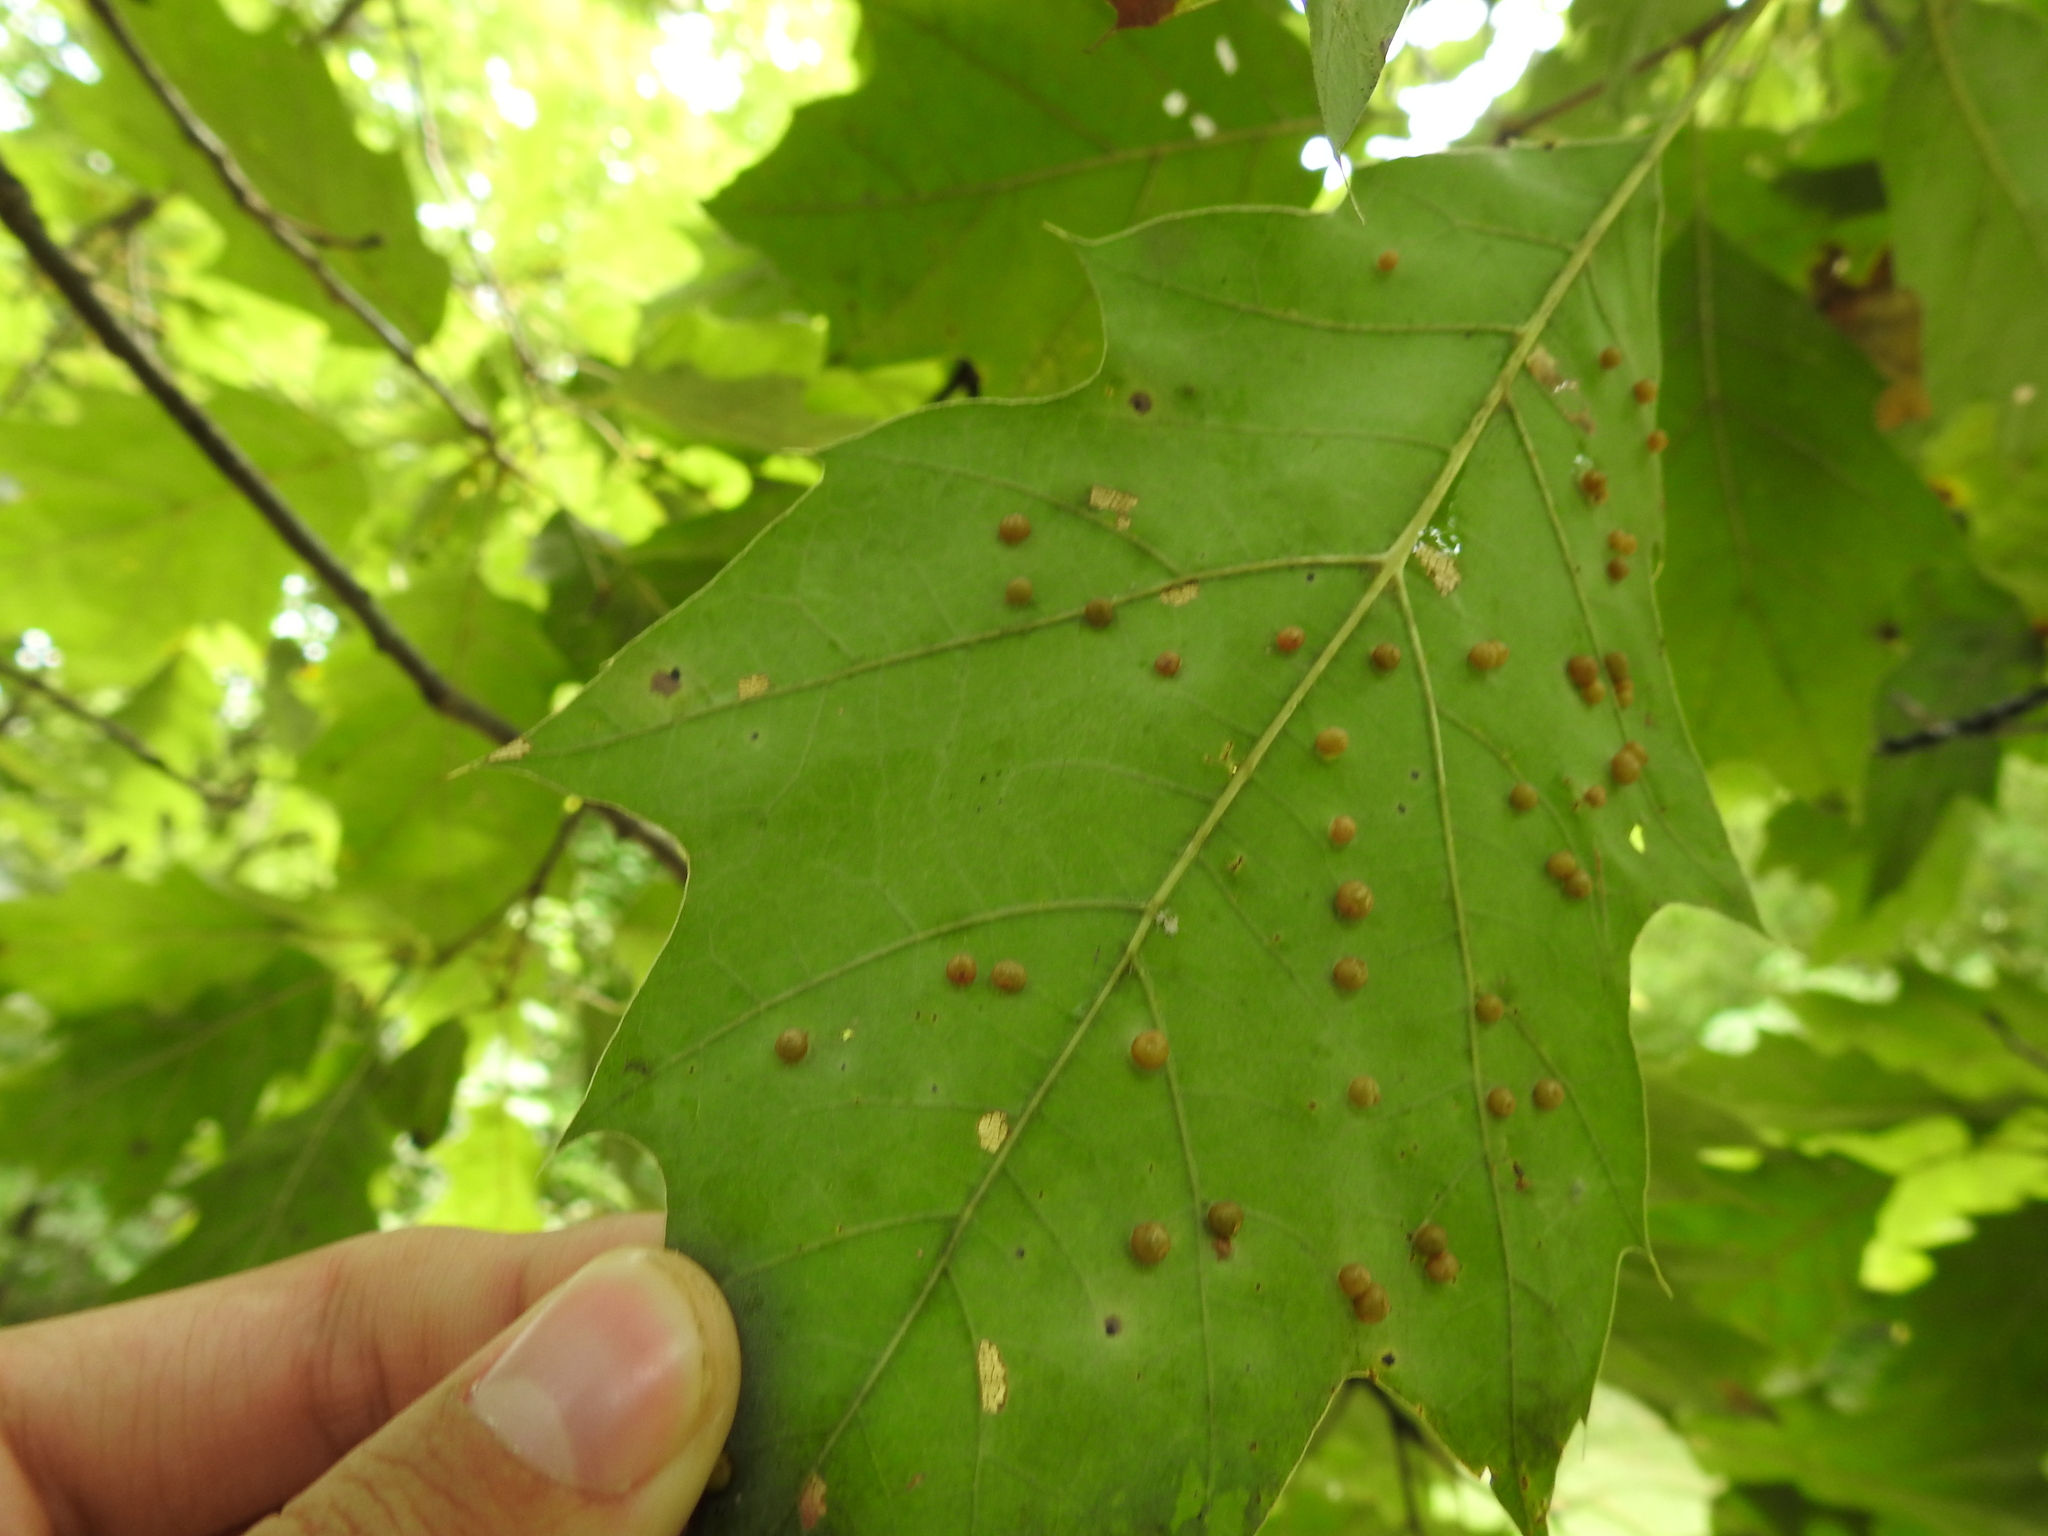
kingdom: Animalia
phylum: Arthropoda
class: Insecta
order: Diptera
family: Cecidomyiidae
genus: Polystepha
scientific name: Polystepha globosa
